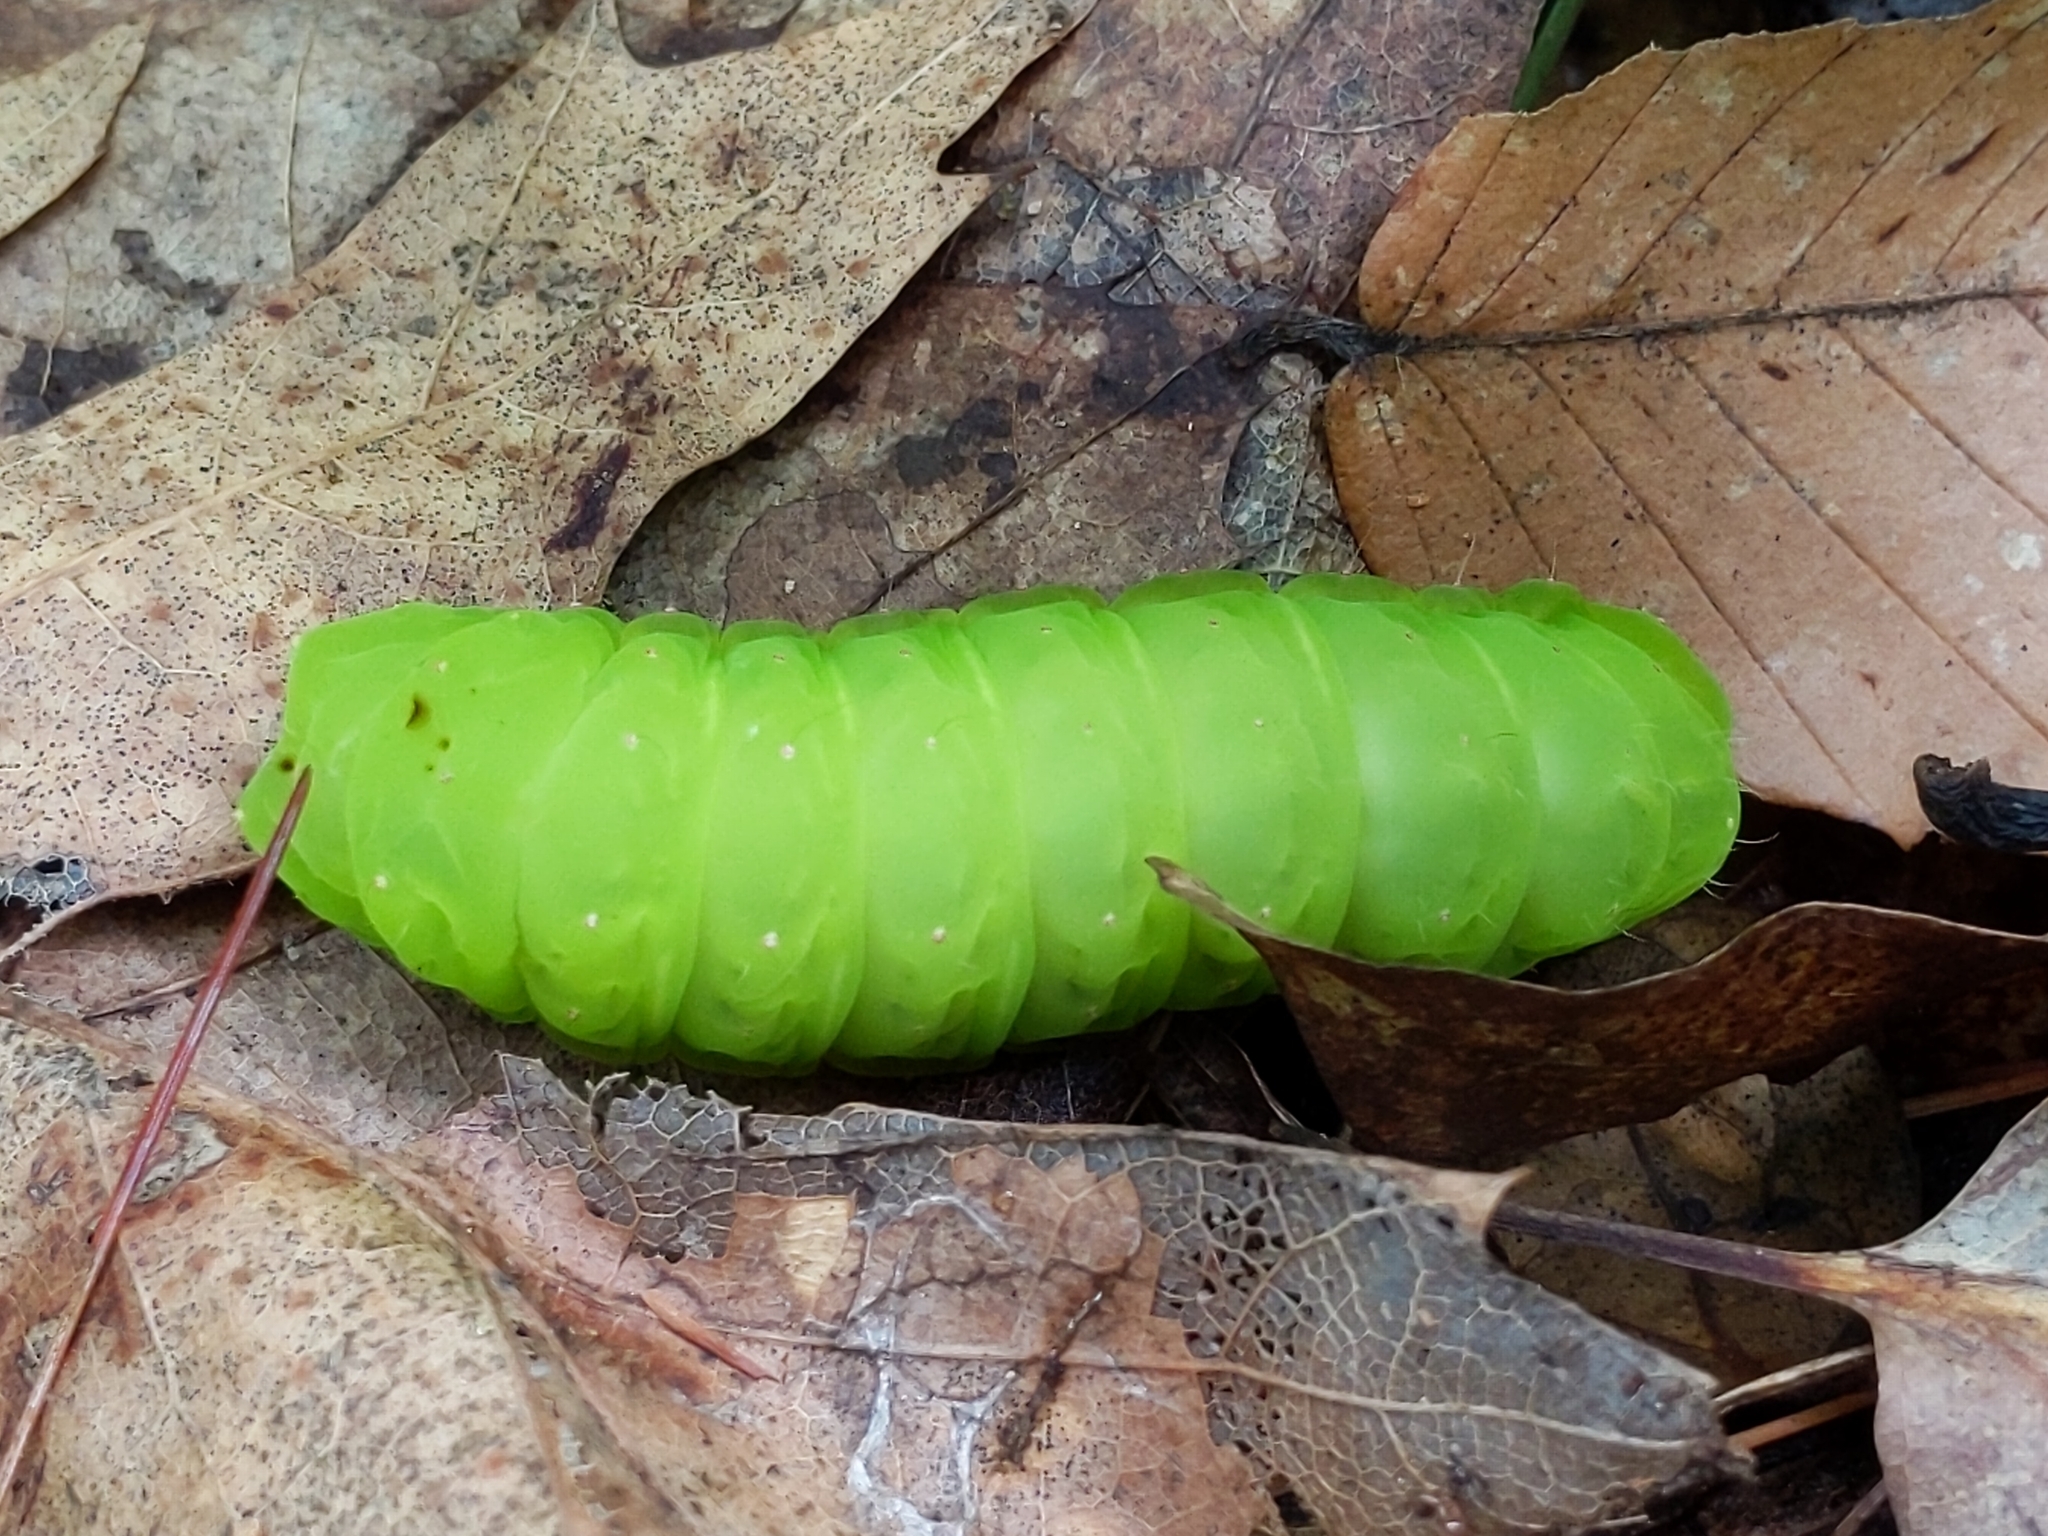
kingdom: Animalia
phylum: Arthropoda
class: Insecta
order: Lepidoptera
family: Saturniidae
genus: Actias
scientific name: Actias luna
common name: Luna moth
